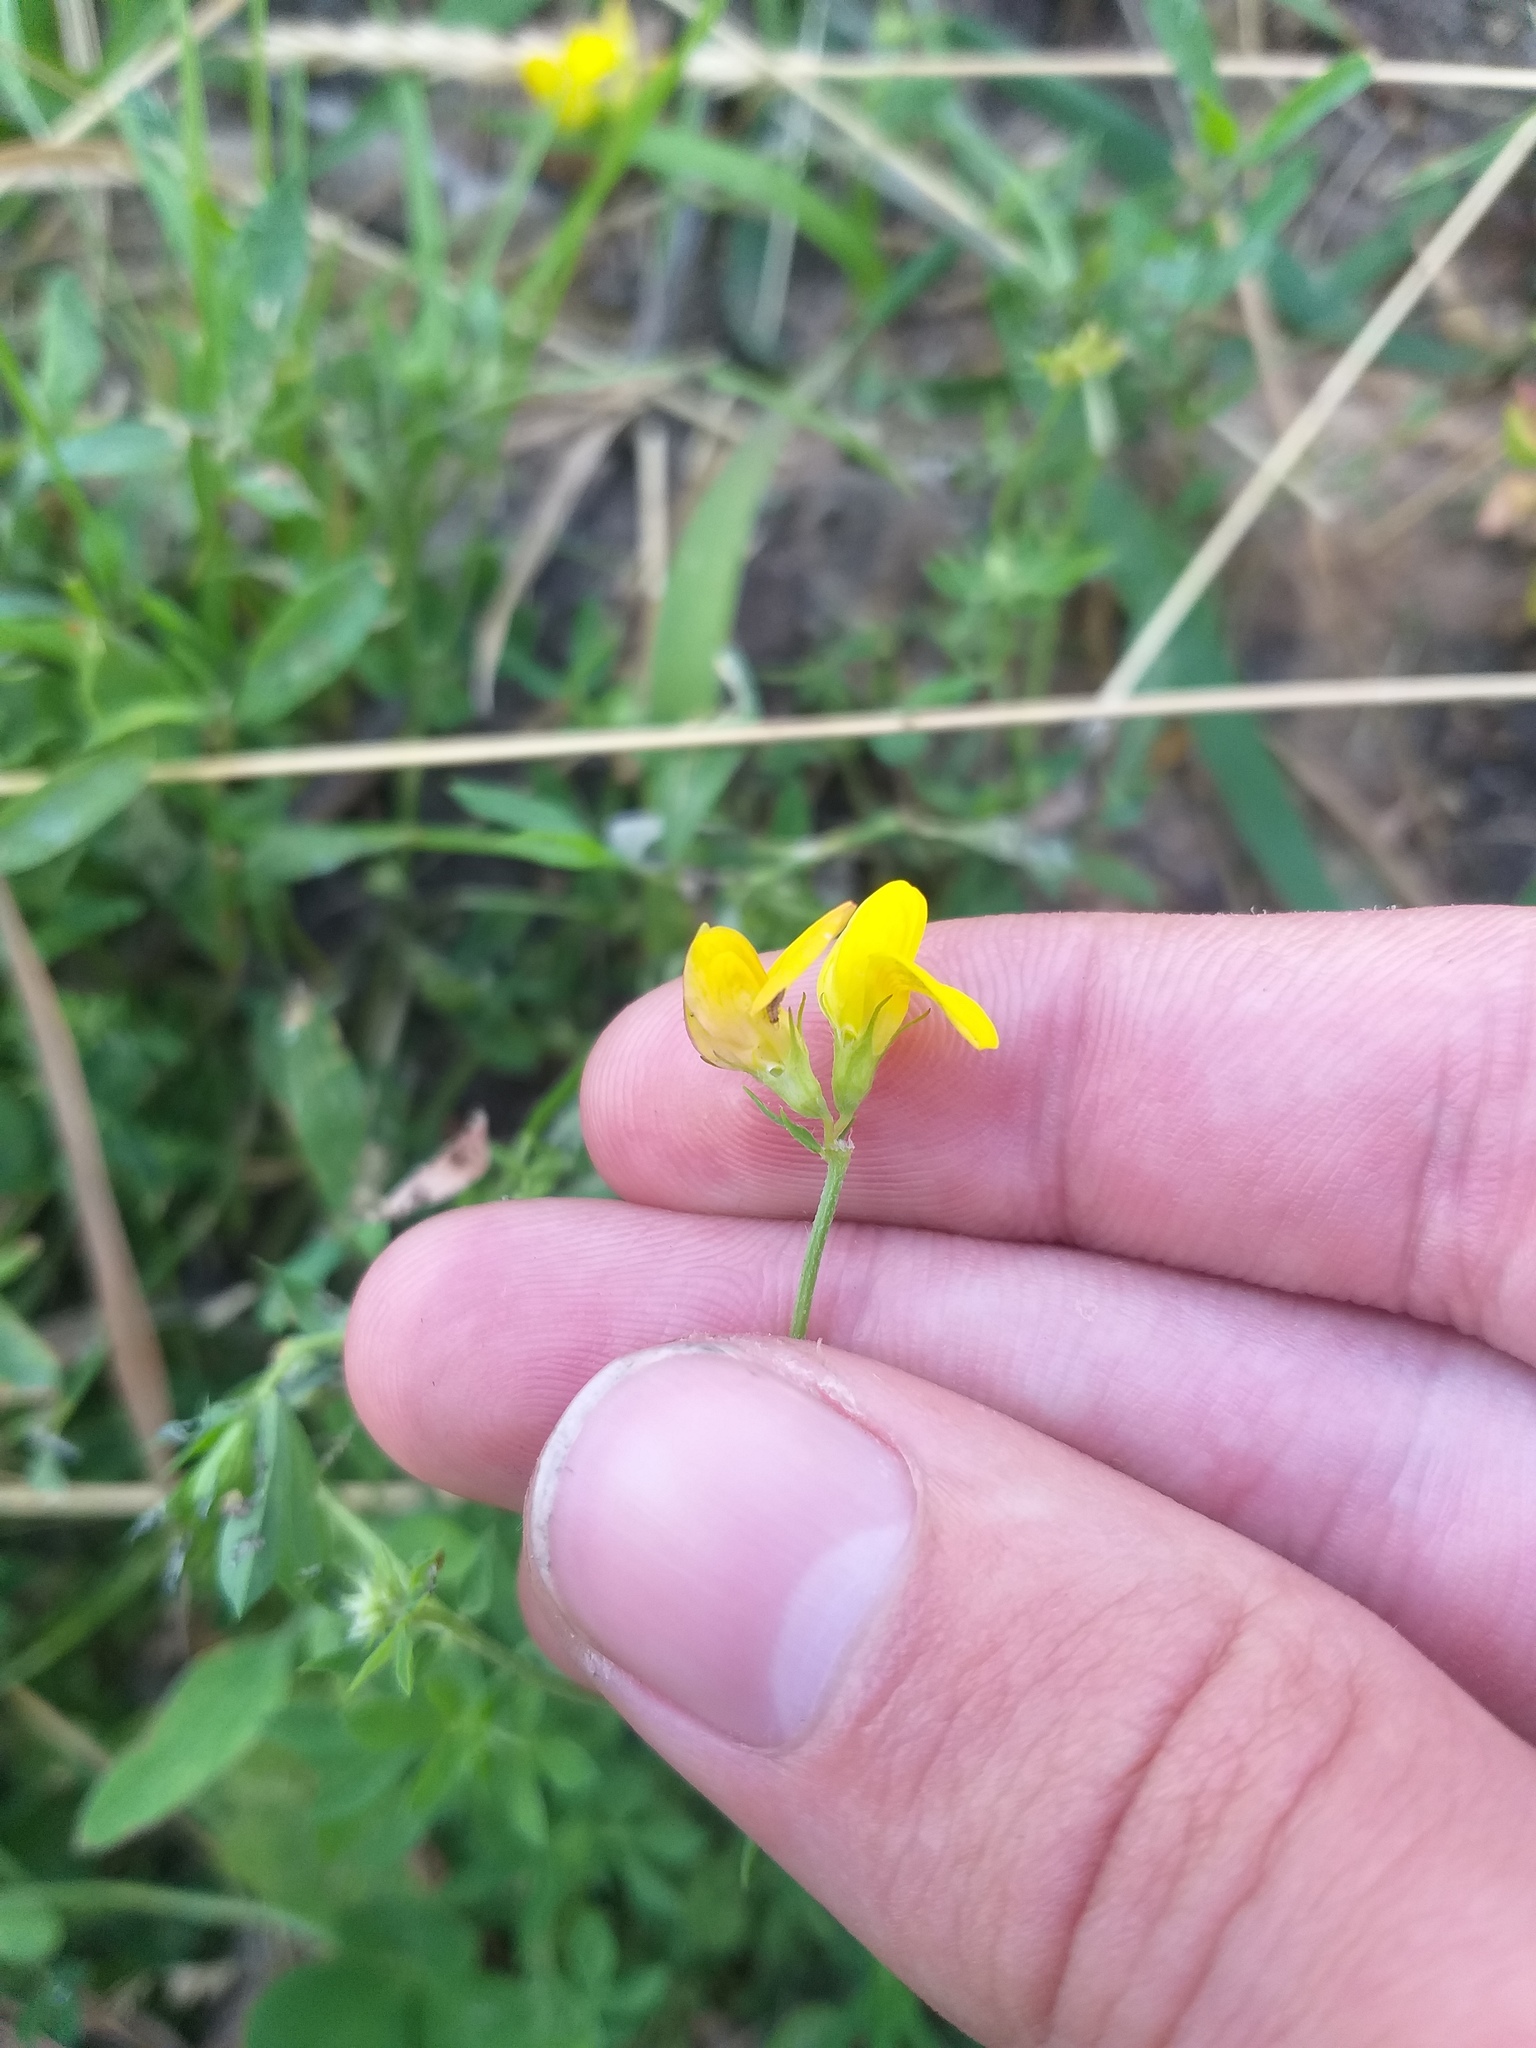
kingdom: Plantae
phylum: Tracheophyta
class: Magnoliopsida
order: Fabales
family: Fabaceae
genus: Lotus
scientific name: Lotus corniculatus
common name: Common bird's-foot-trefoil
